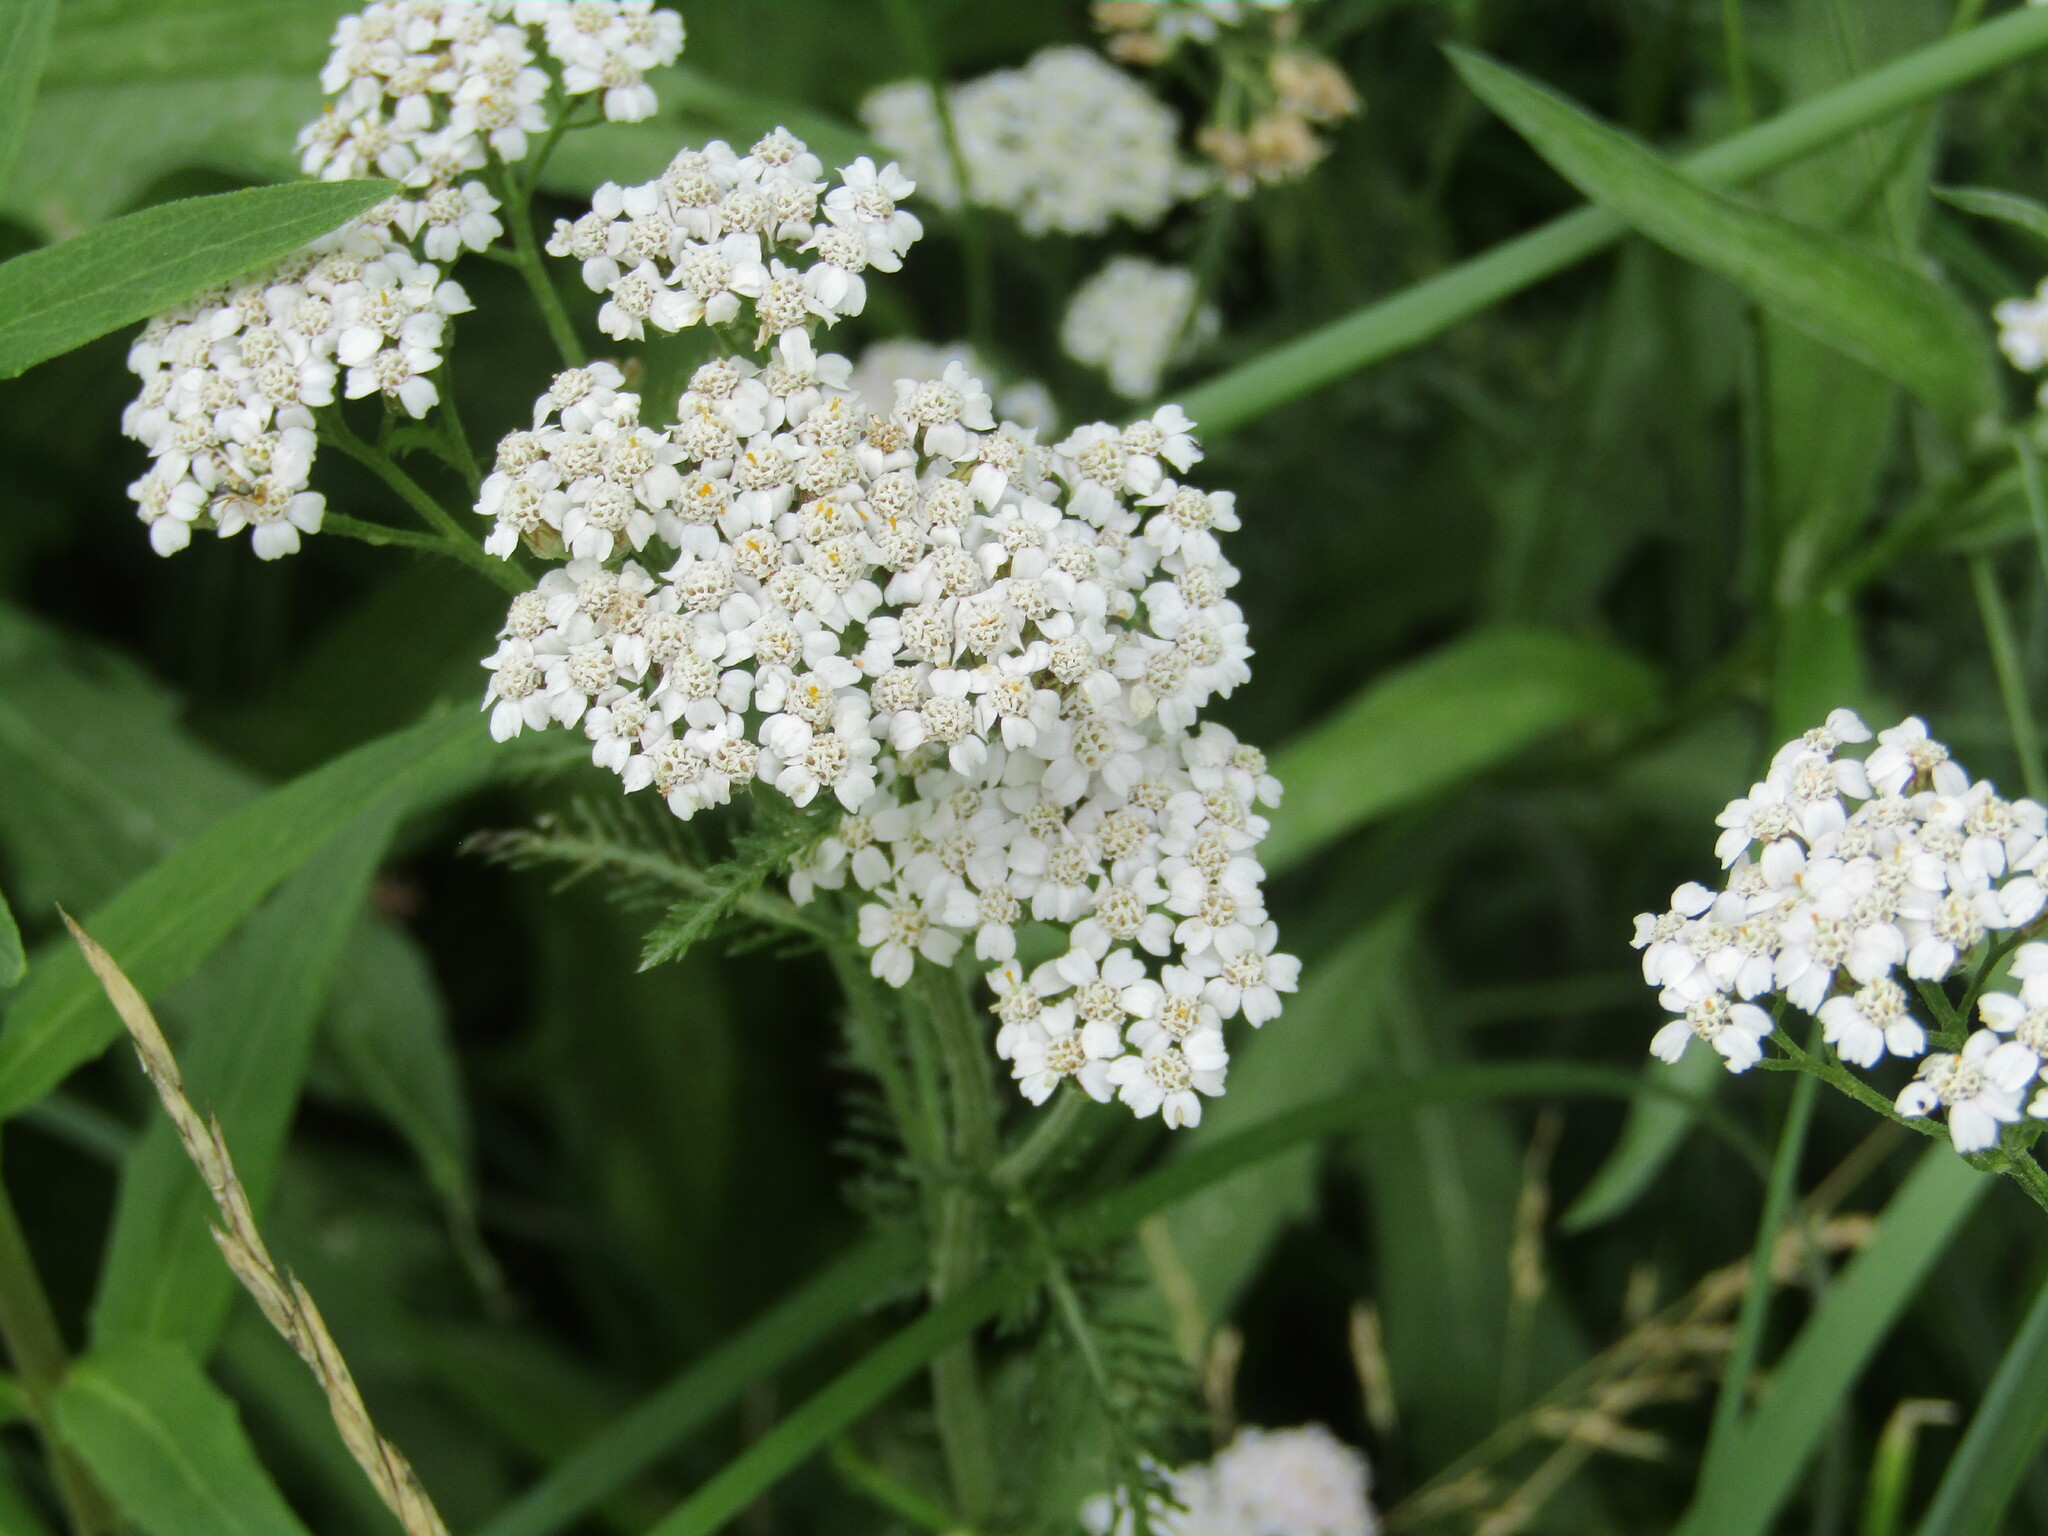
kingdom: Plantae
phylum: Tracheophyta
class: Magnoliopsida
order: Asterales
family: Asteraceae
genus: Achillea
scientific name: Achillea millefolium
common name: Yarrow
